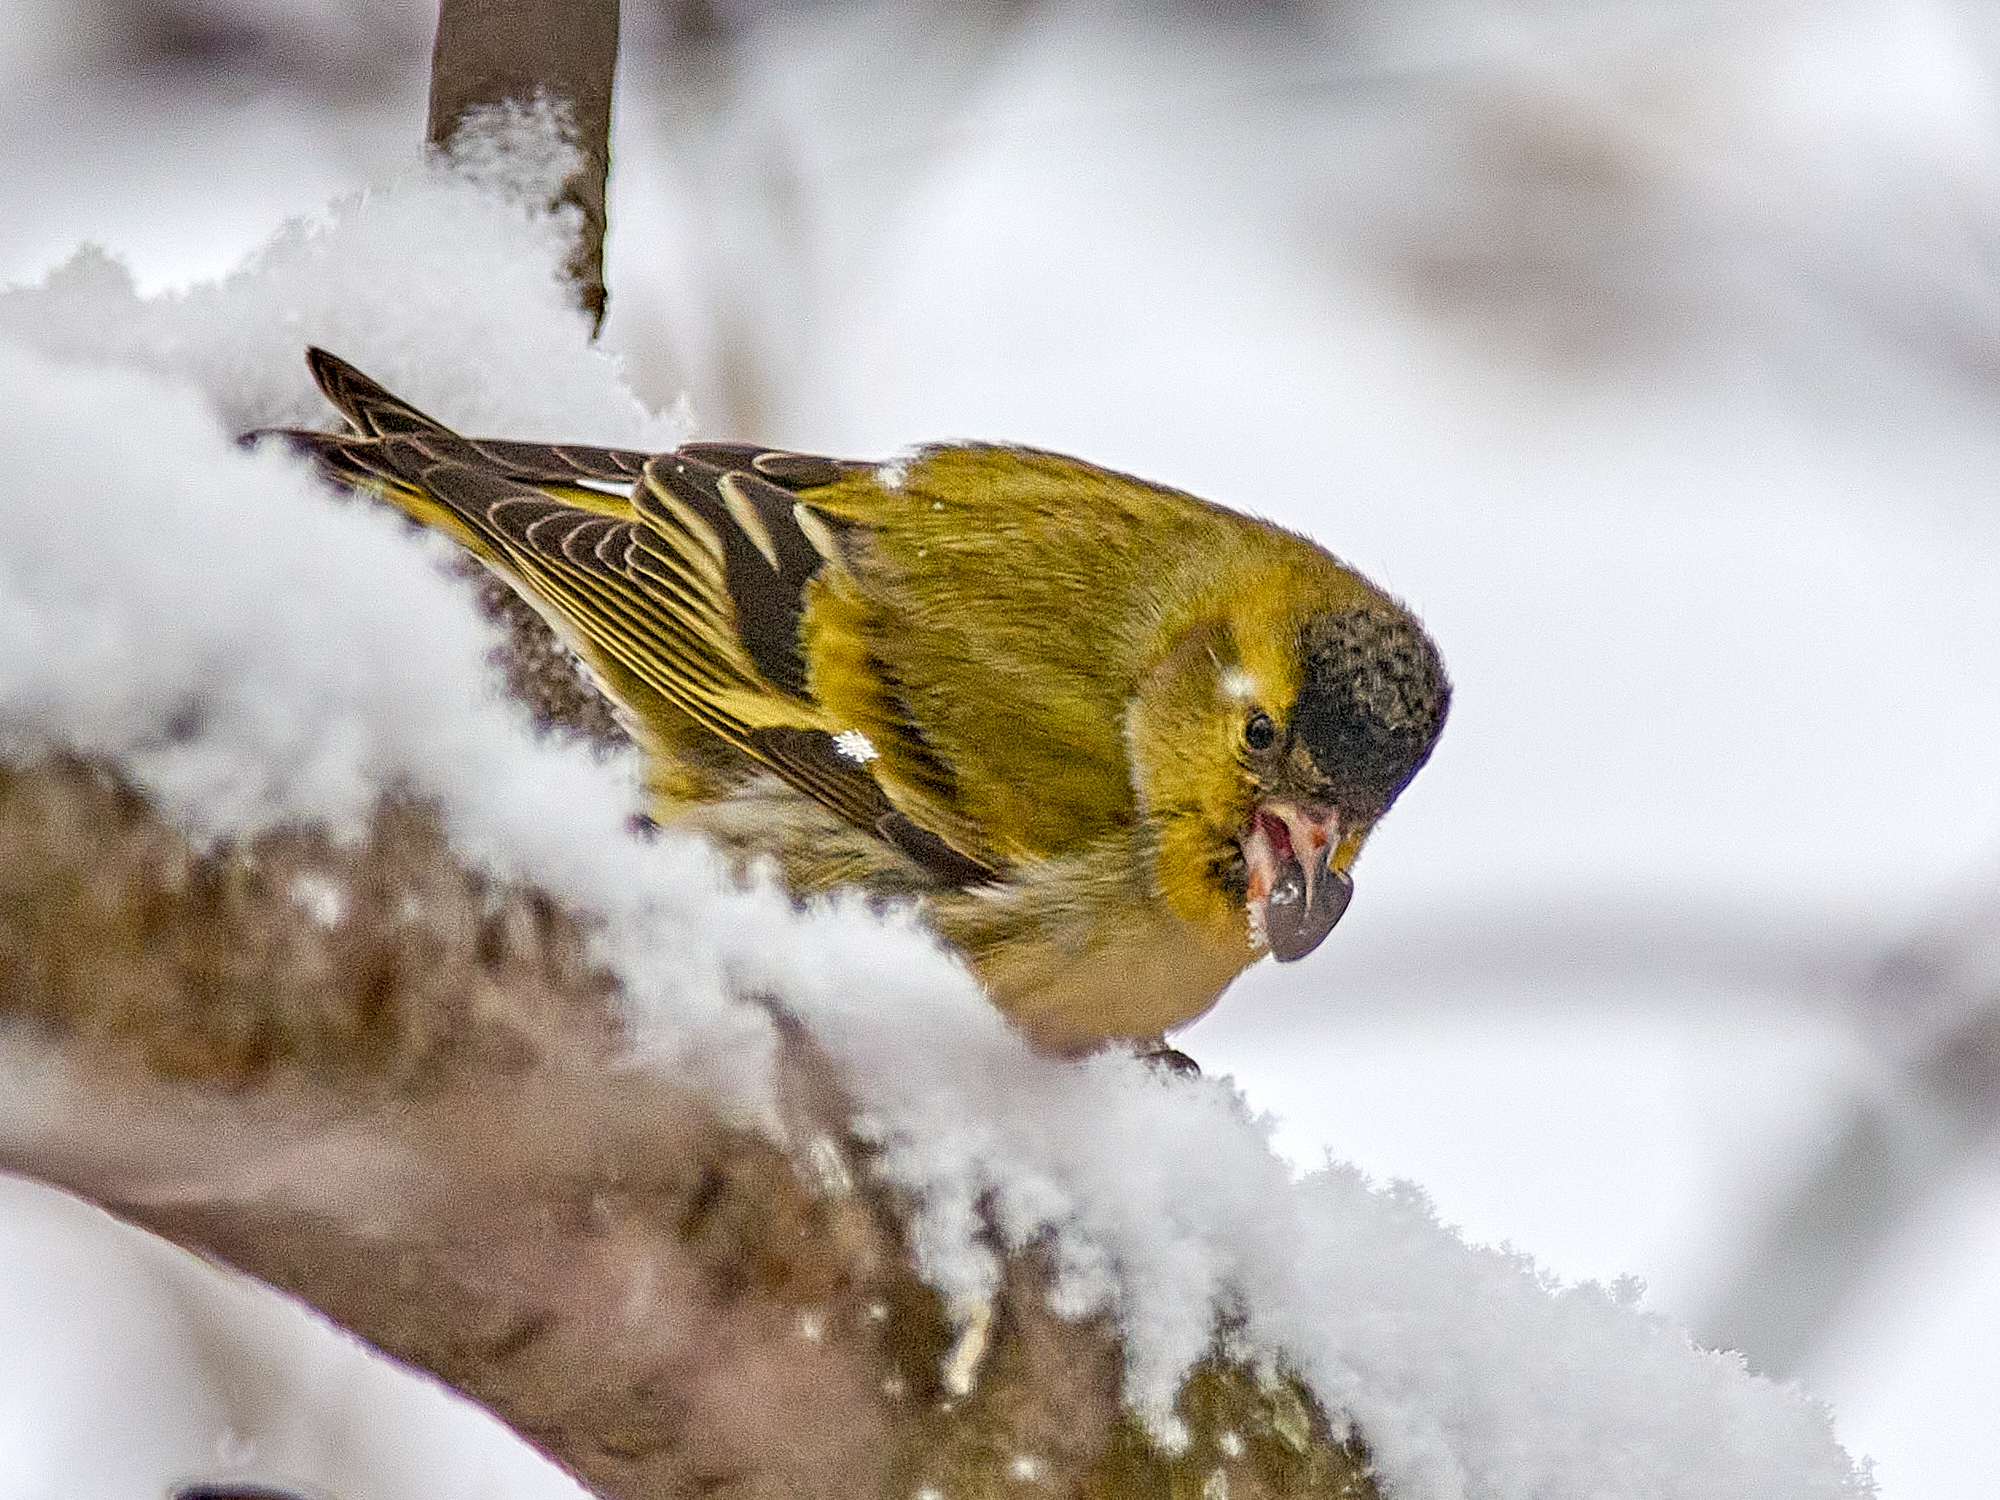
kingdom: Animalia
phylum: Chordata
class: Aves
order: Passeriformes
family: Fringillidae
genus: Spinus
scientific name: Spinus spinus
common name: Eurasian siskin
